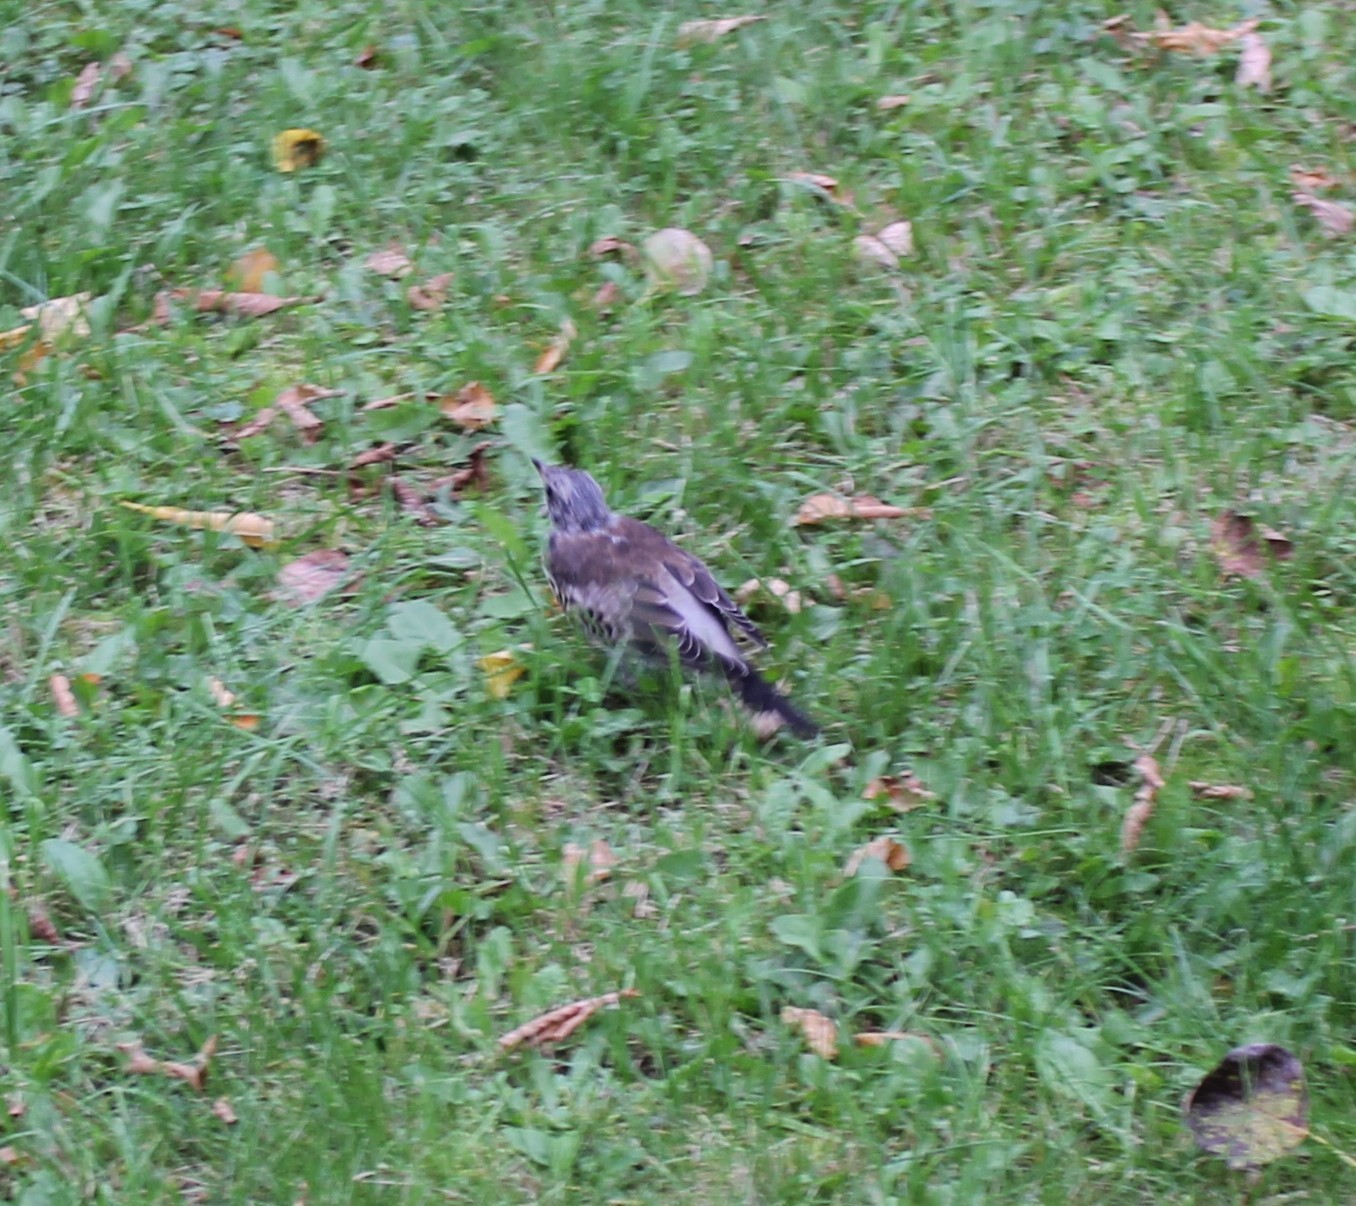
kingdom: Animalia
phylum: Chordata
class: Aves
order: Passeriformes
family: Turdidae
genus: Turdus
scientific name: Turdus pilaris
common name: Fieldfare
